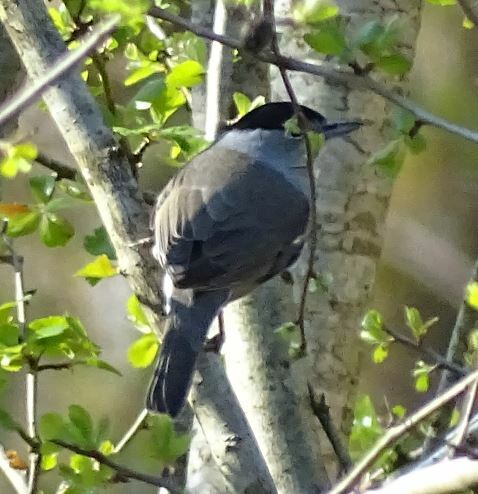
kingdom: Animalia
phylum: Chordata
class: Aves
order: Passeriformes
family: Sylviidae
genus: Sylvia
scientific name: Sylvia atricapilla
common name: Eurasian blackcap
